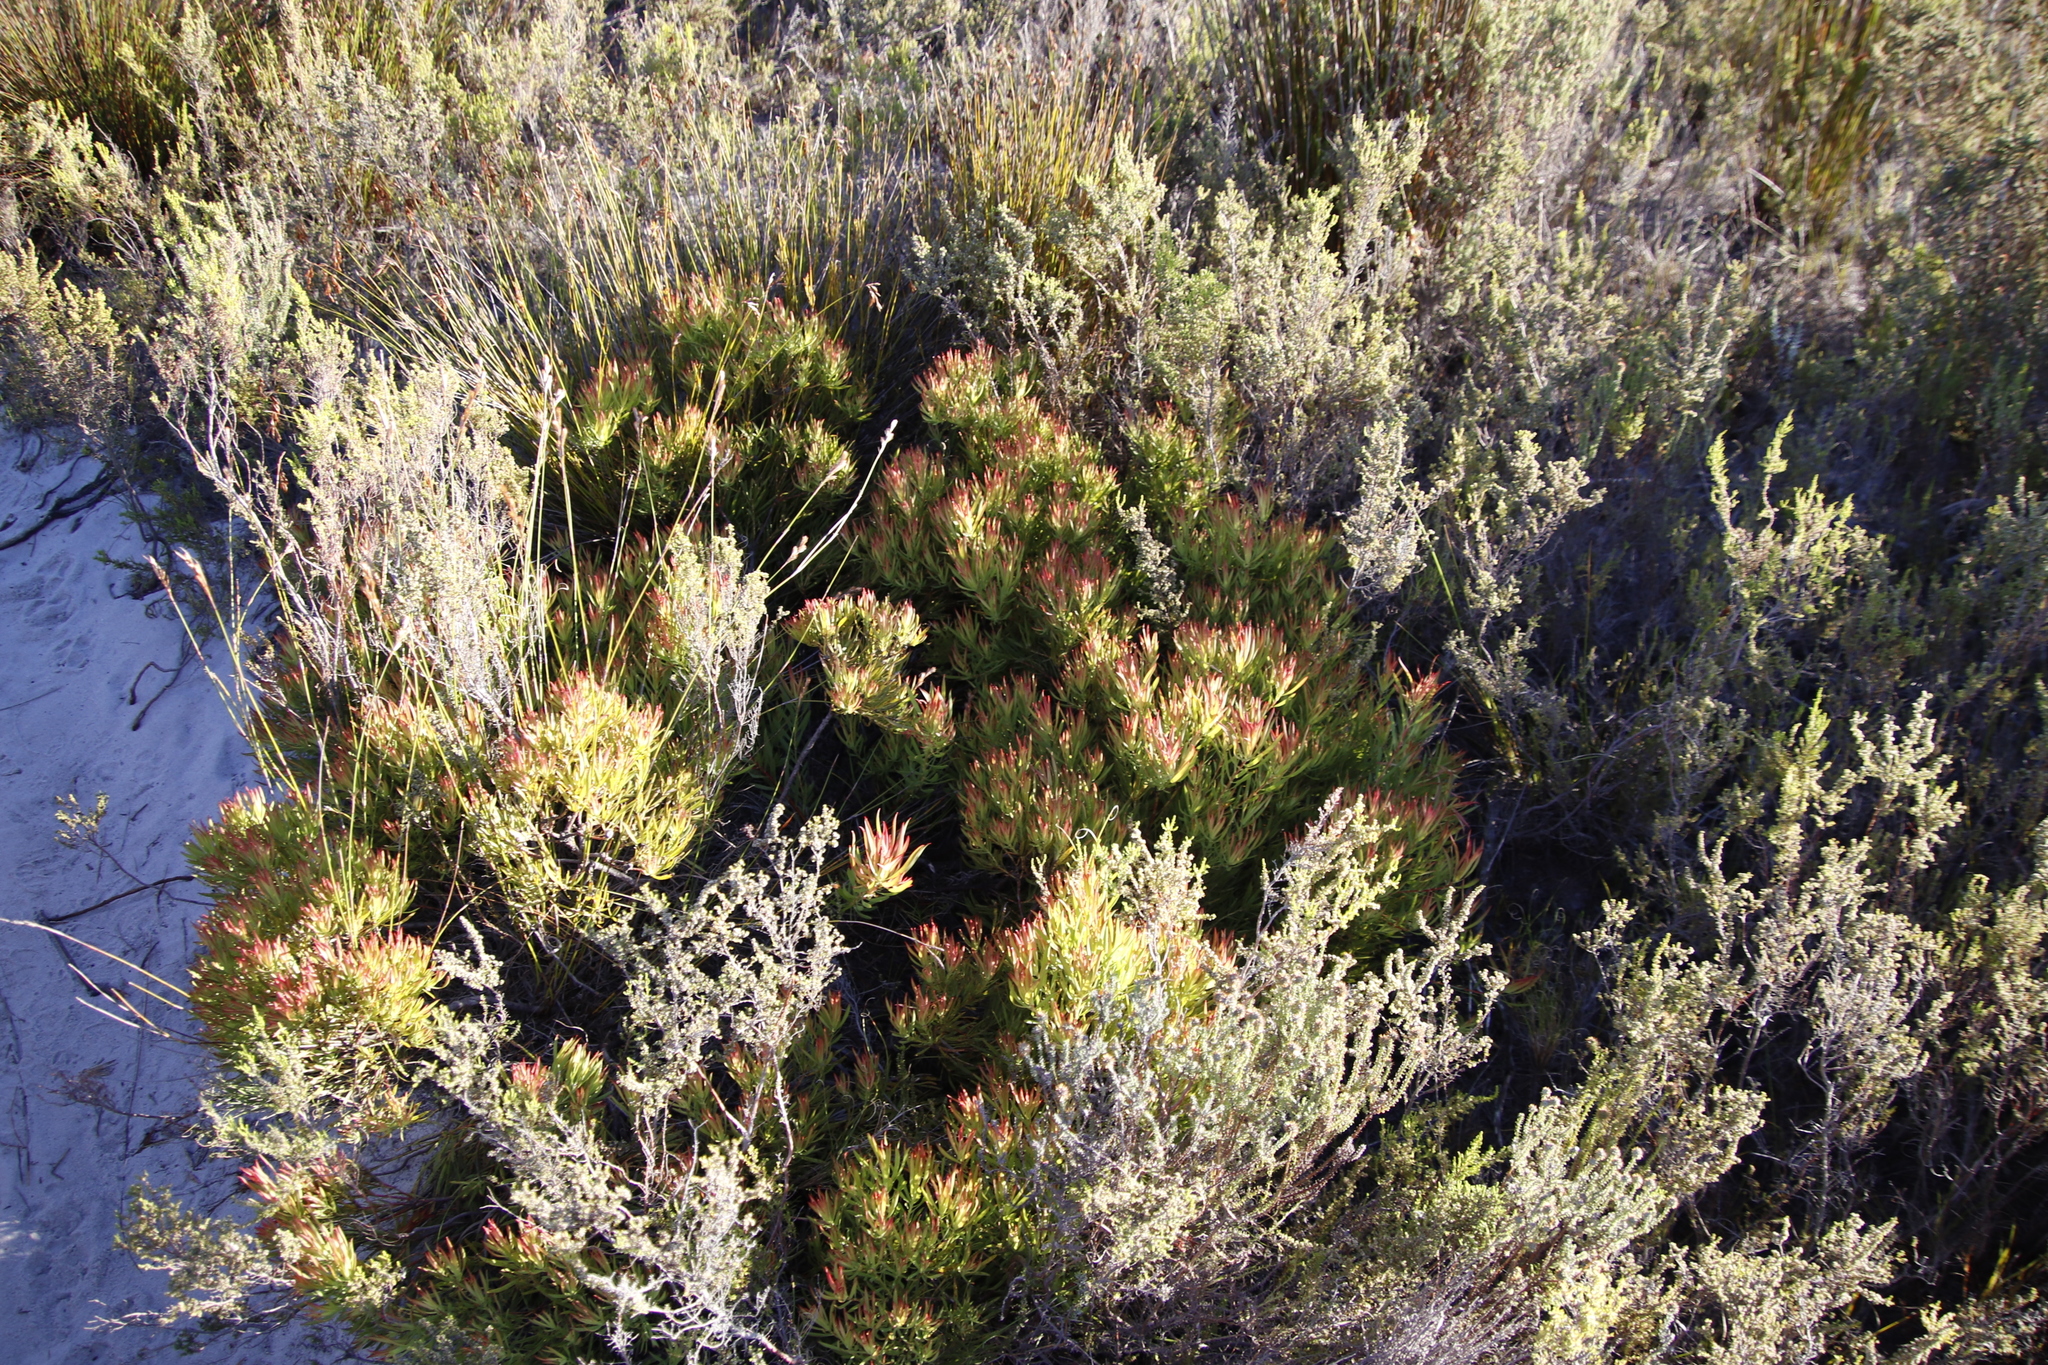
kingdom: Plantae
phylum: Tracheophyta
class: Magnoliopsida
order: Proteales
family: Proteaceae
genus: Leucadendron
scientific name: Leucadendron salignum
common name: Common sunshine conebush
